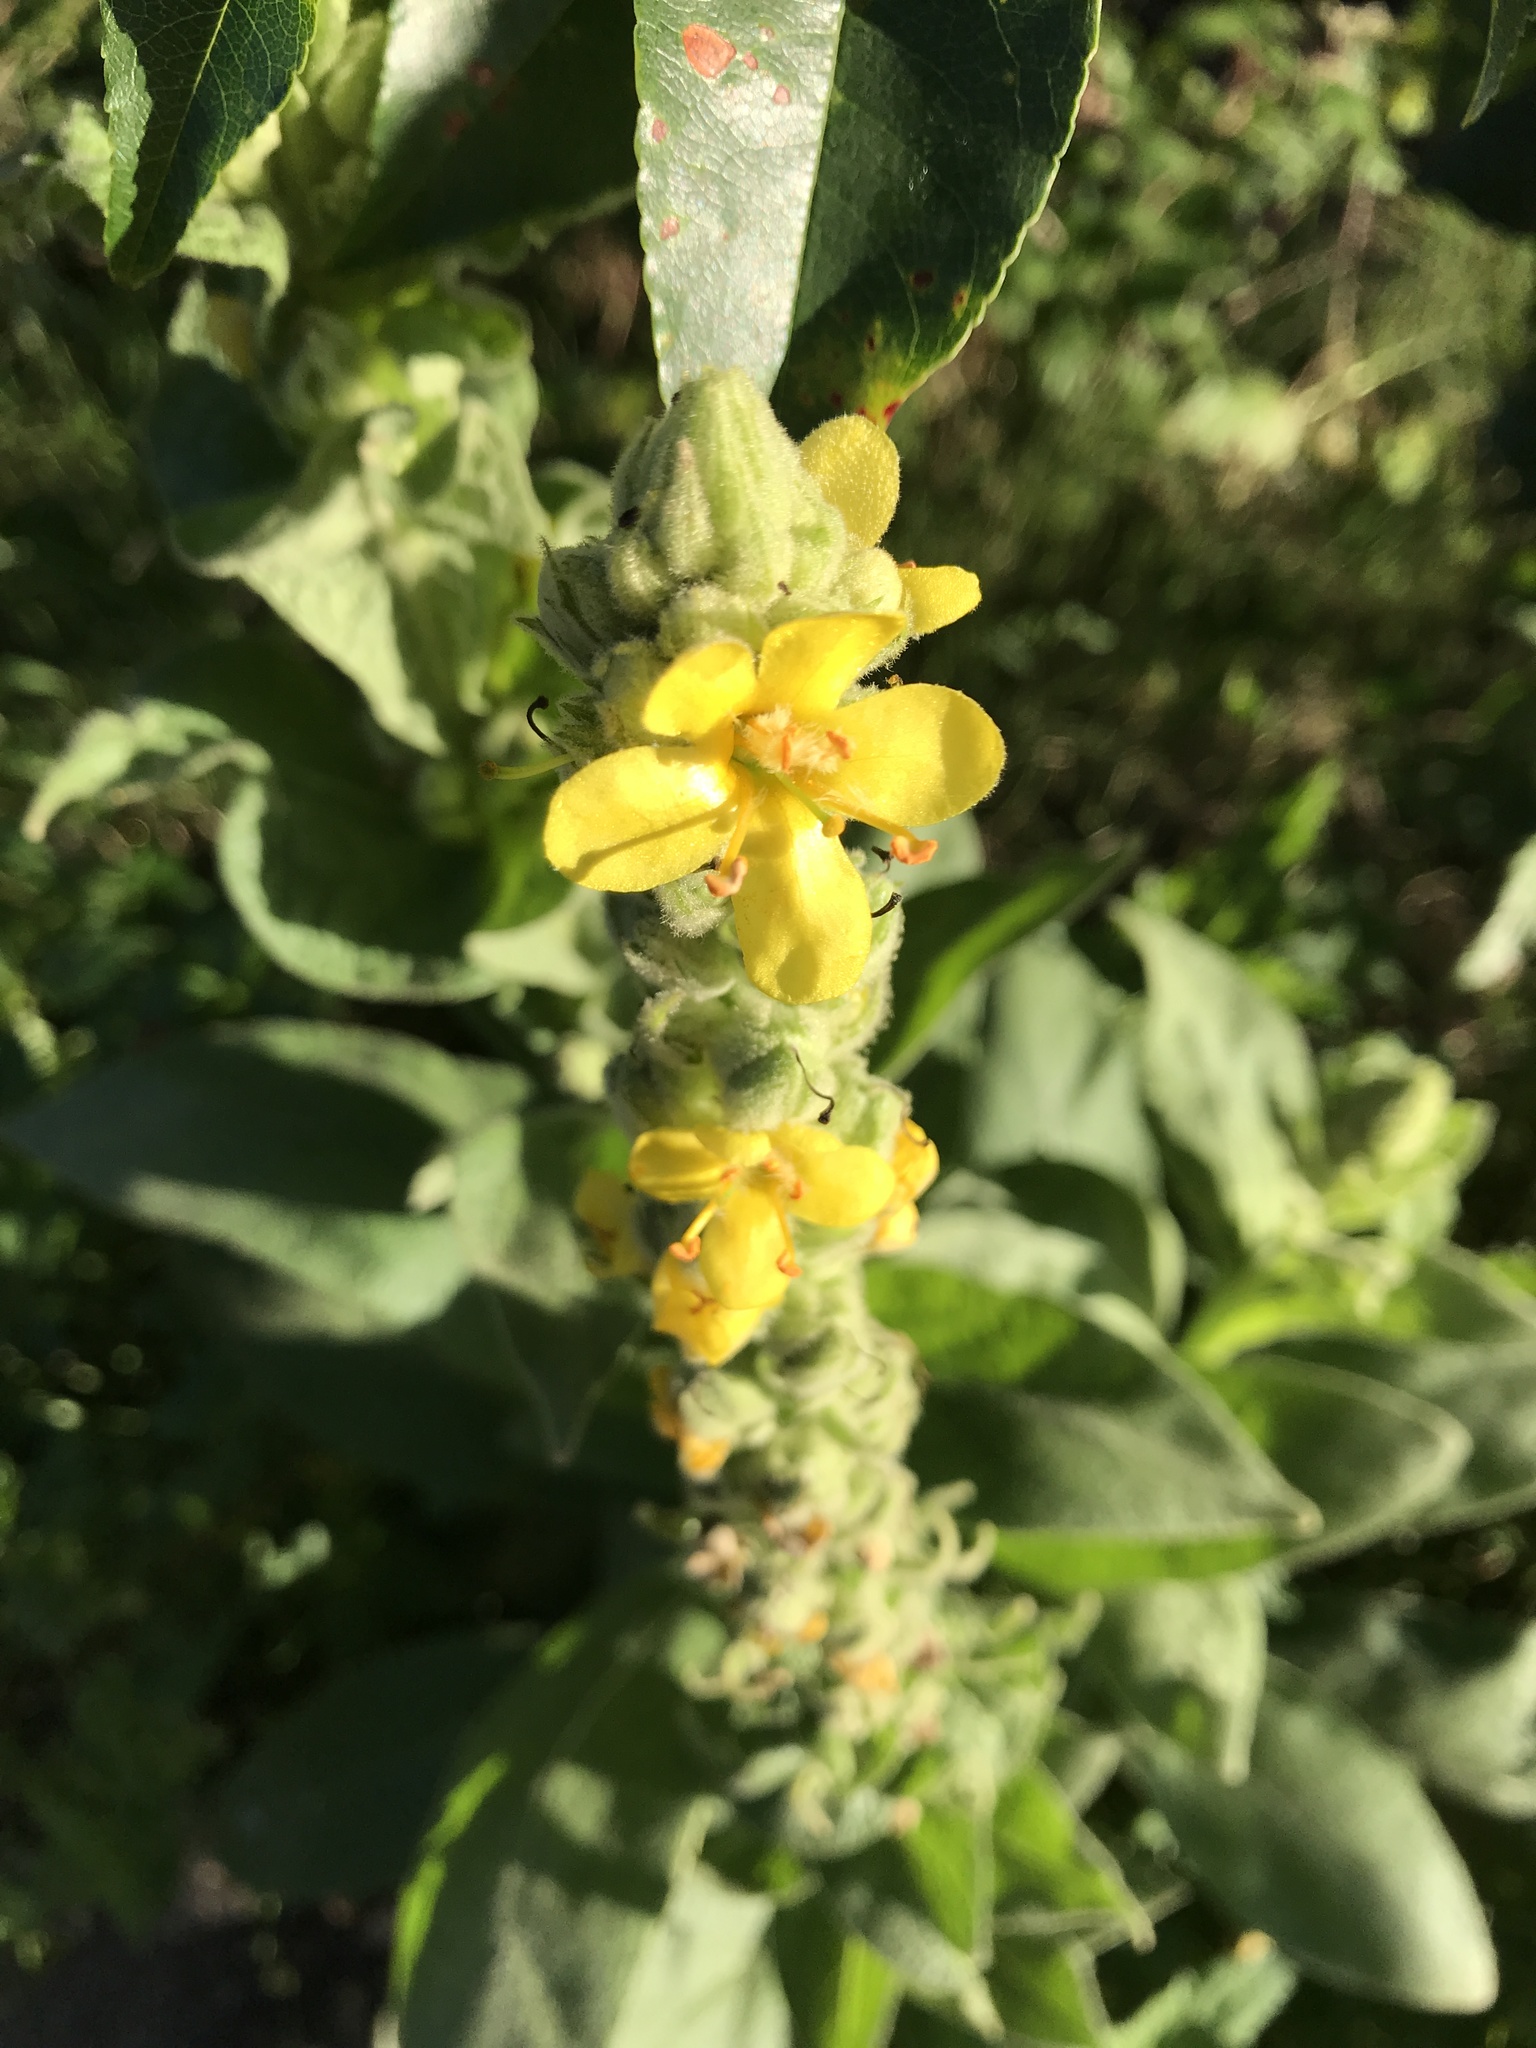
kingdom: Plantae
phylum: Tracheophyta
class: Magnoliopsida
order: Lamiales
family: Scrophulariaceae
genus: Verbascum
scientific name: Verbascum thapsus
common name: Common mullein
